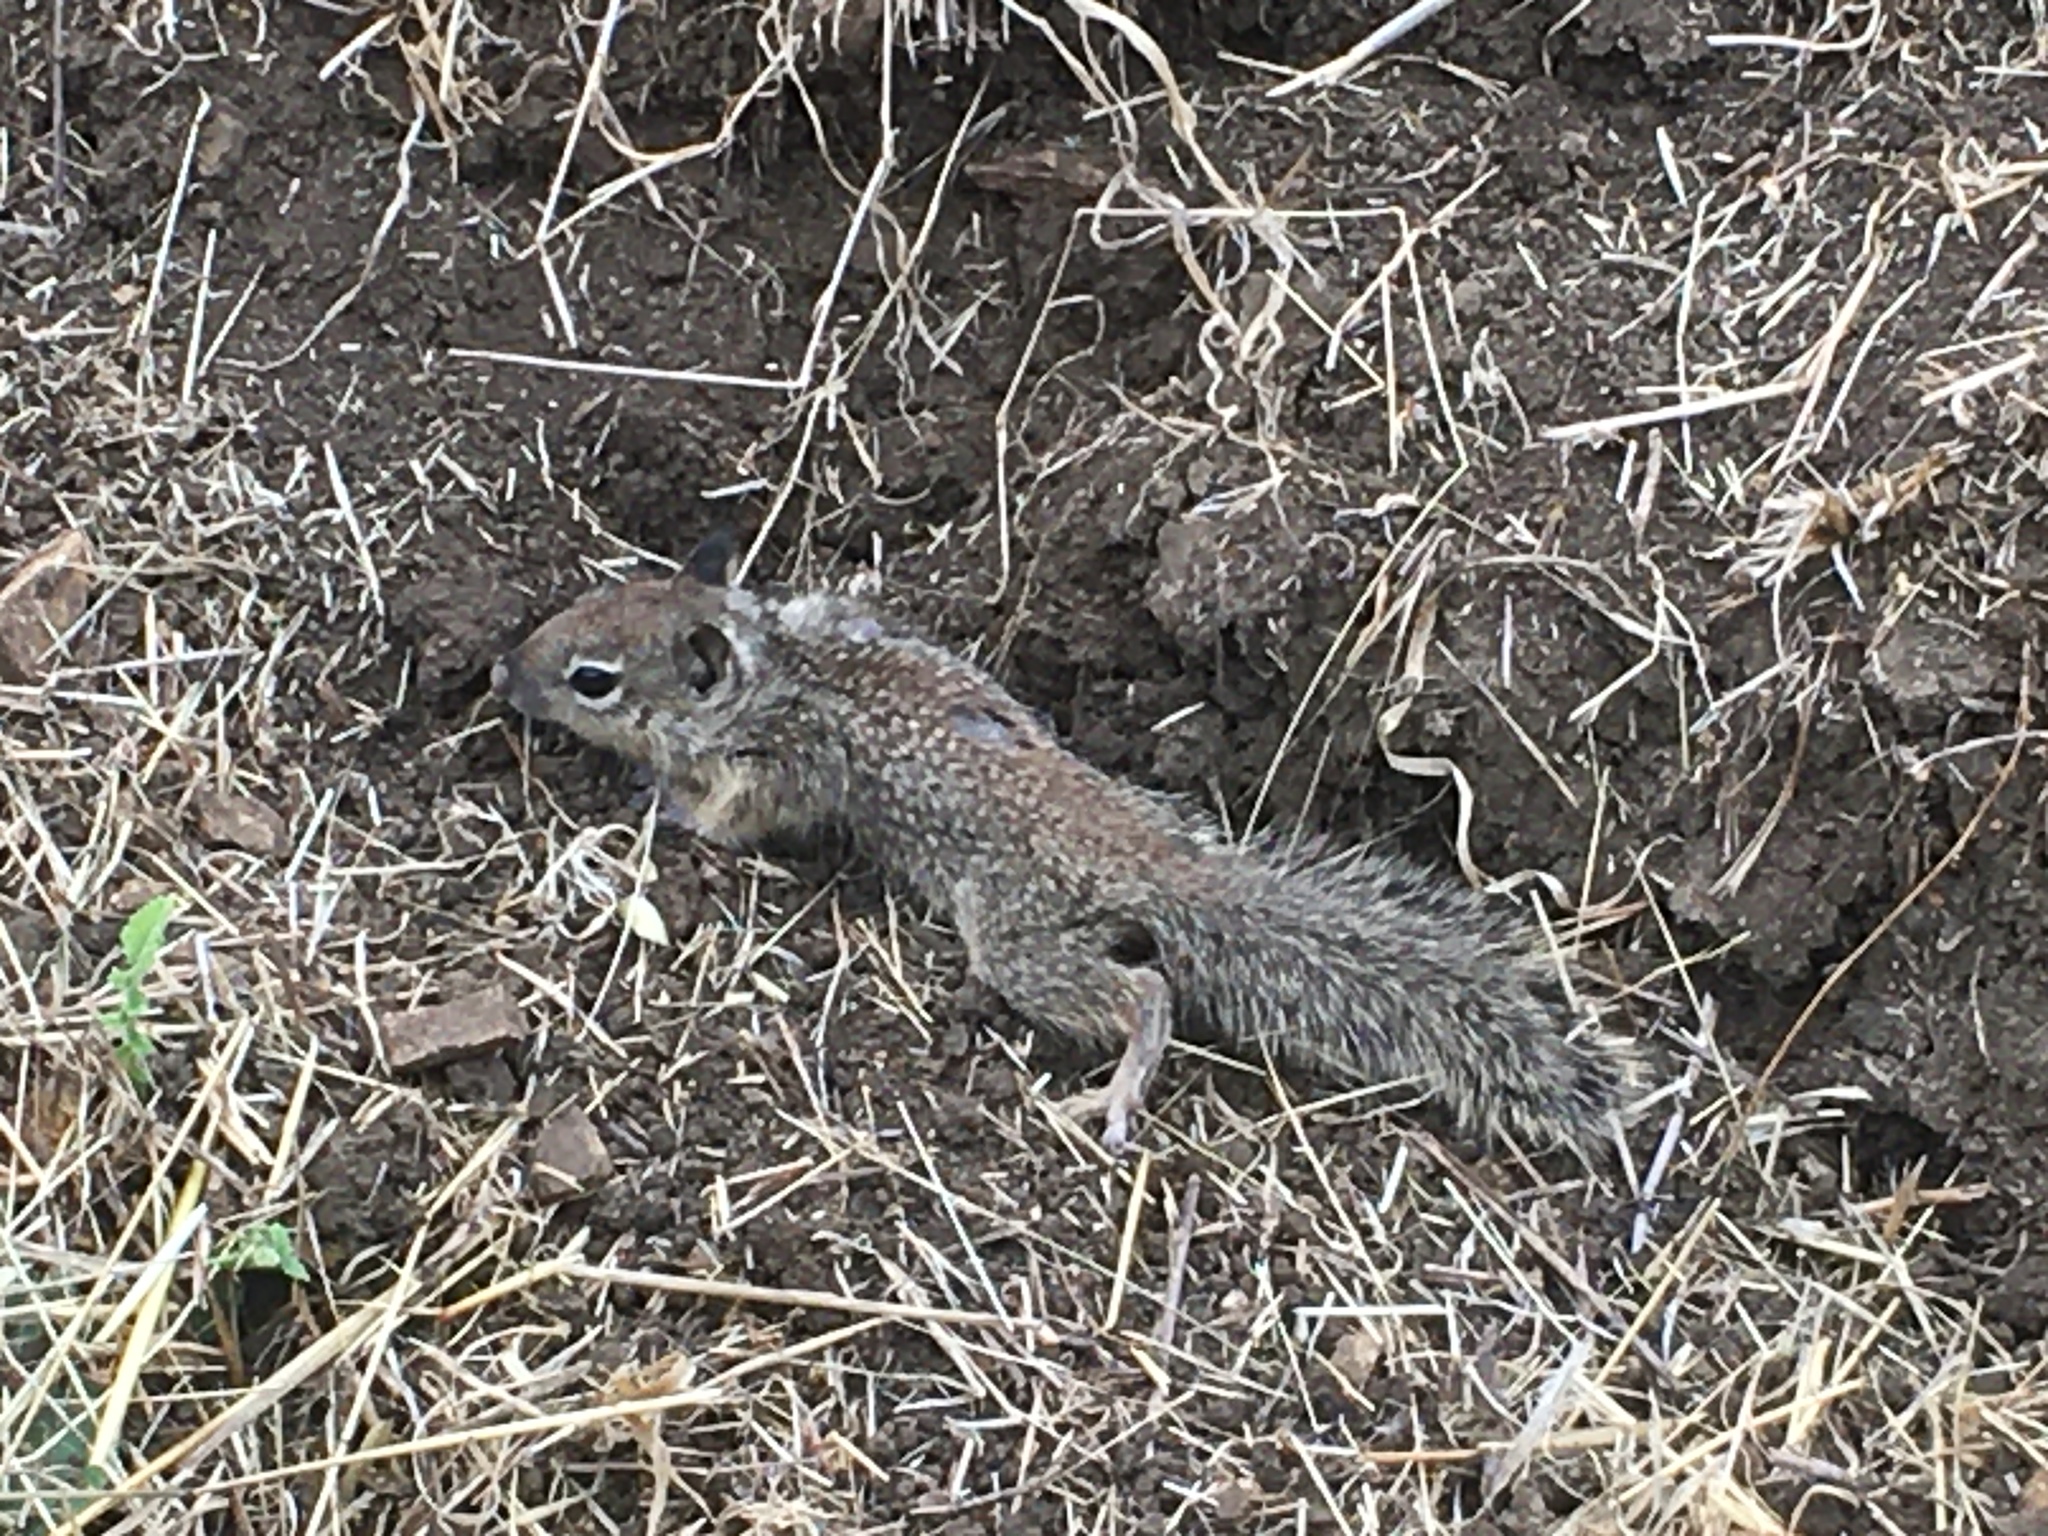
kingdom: Animalia
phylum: Chordata
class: Mammalia
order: Rodentia
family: Sciuridae
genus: Otospermophilus
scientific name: Otospermophilus beecheyi
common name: California ground squirrel
